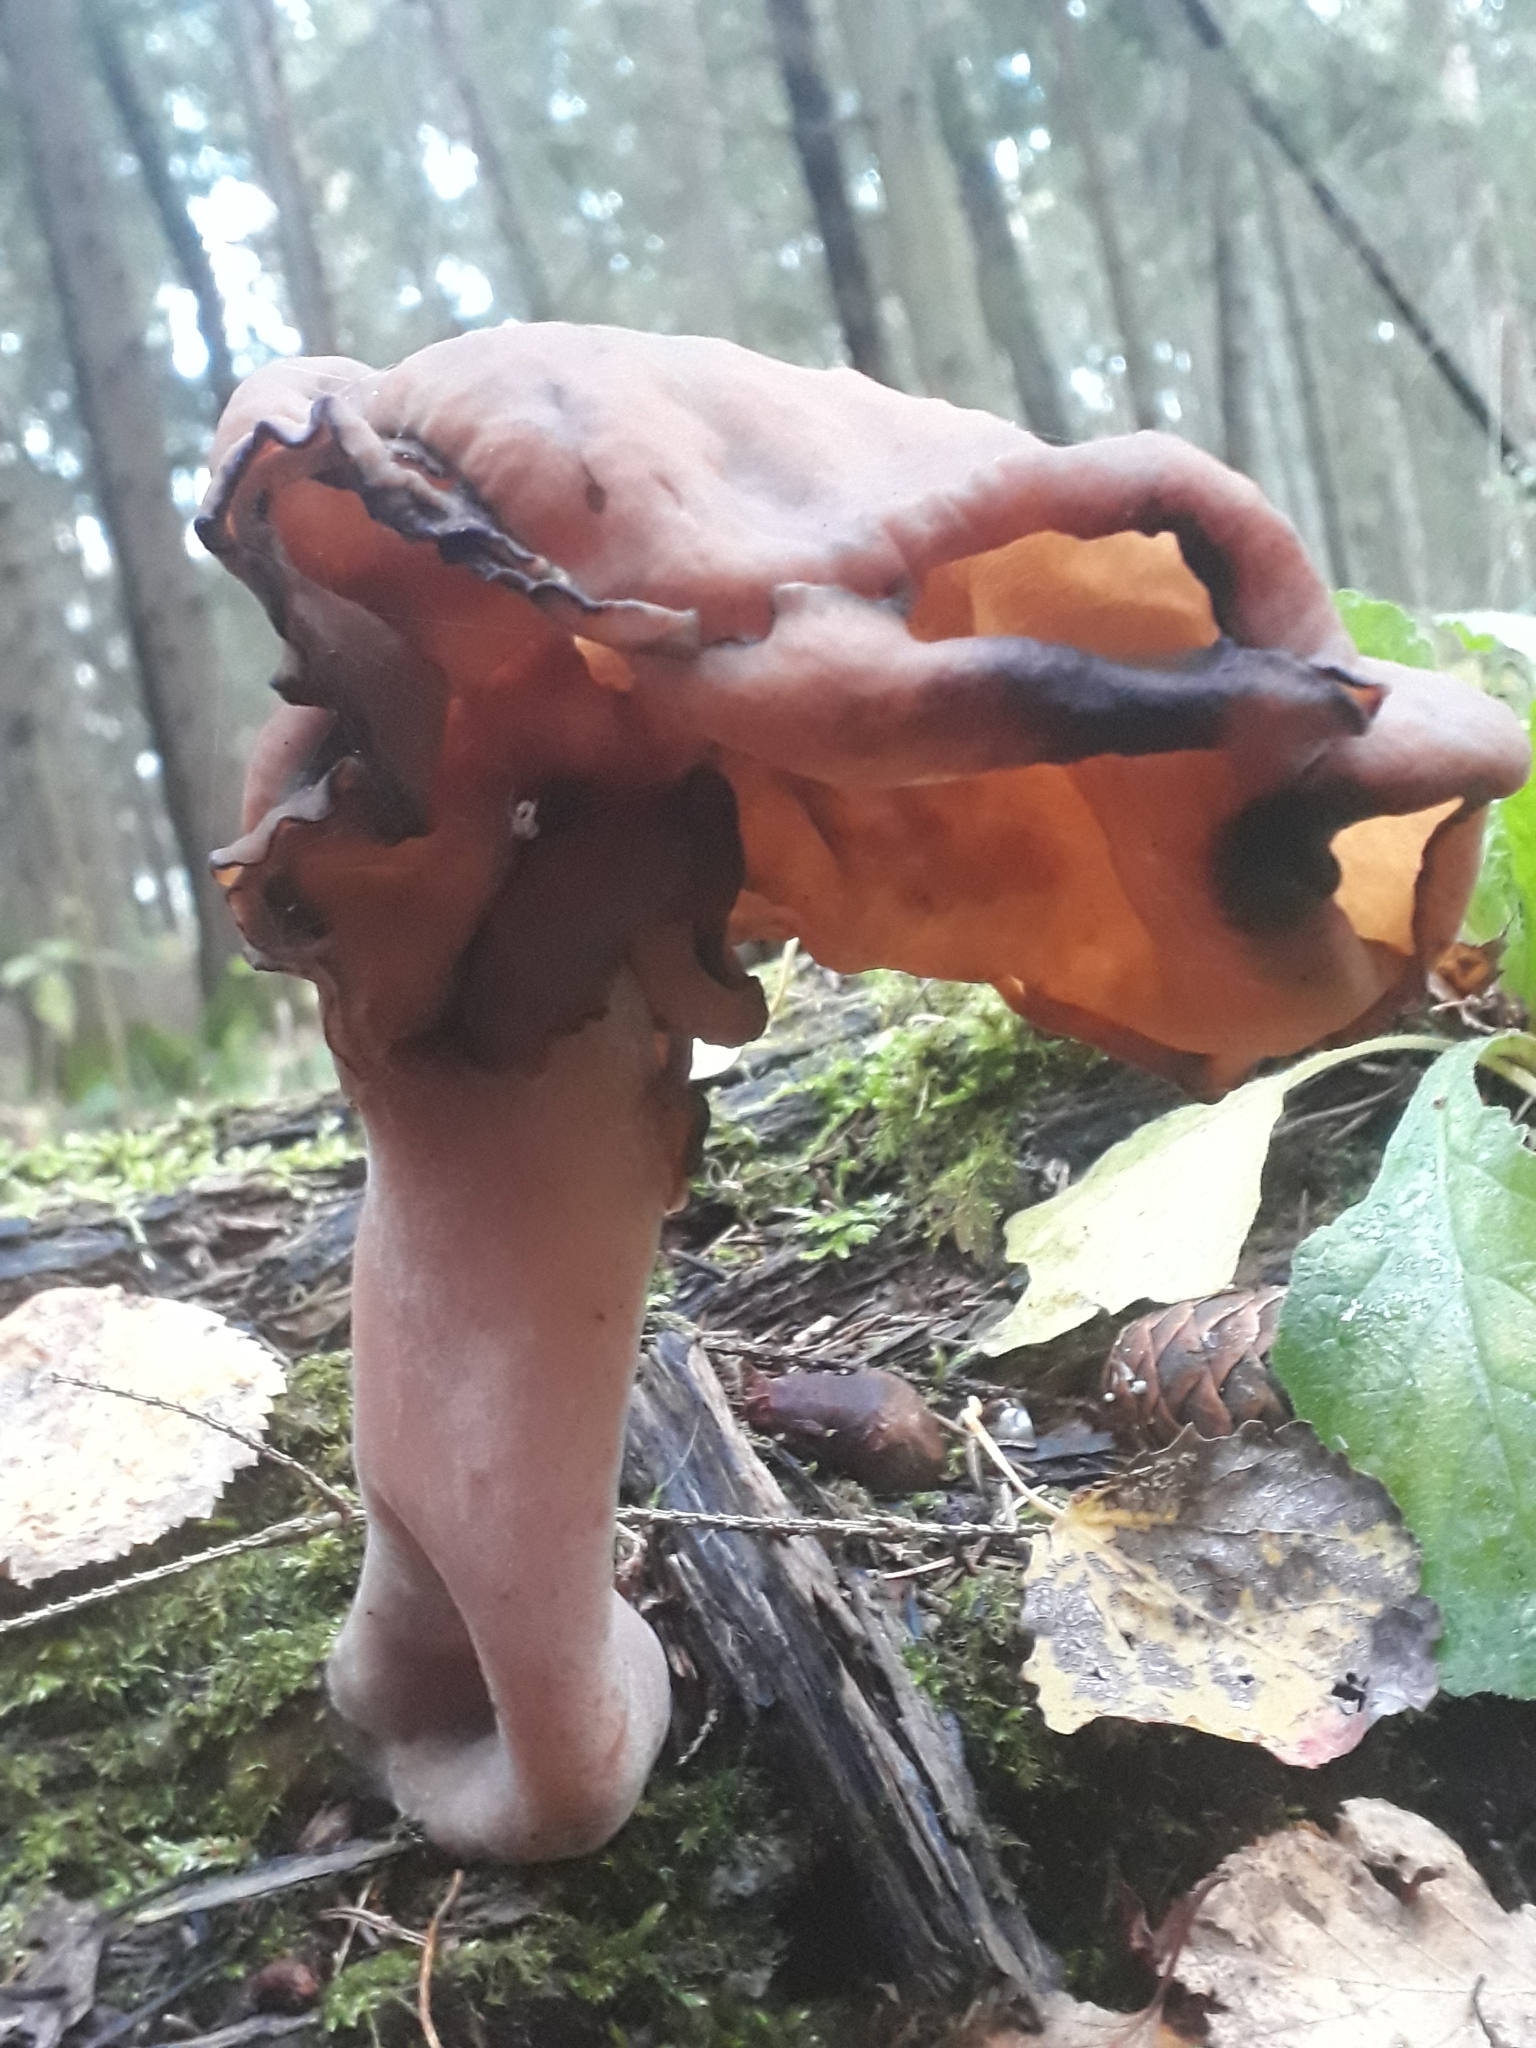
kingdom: Fungi
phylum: Ascomycota
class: Pezizomycetes
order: Pezizales
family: Discinaceae
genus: Gyromitra
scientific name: Gyromitra infula
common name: Pouched false morel
